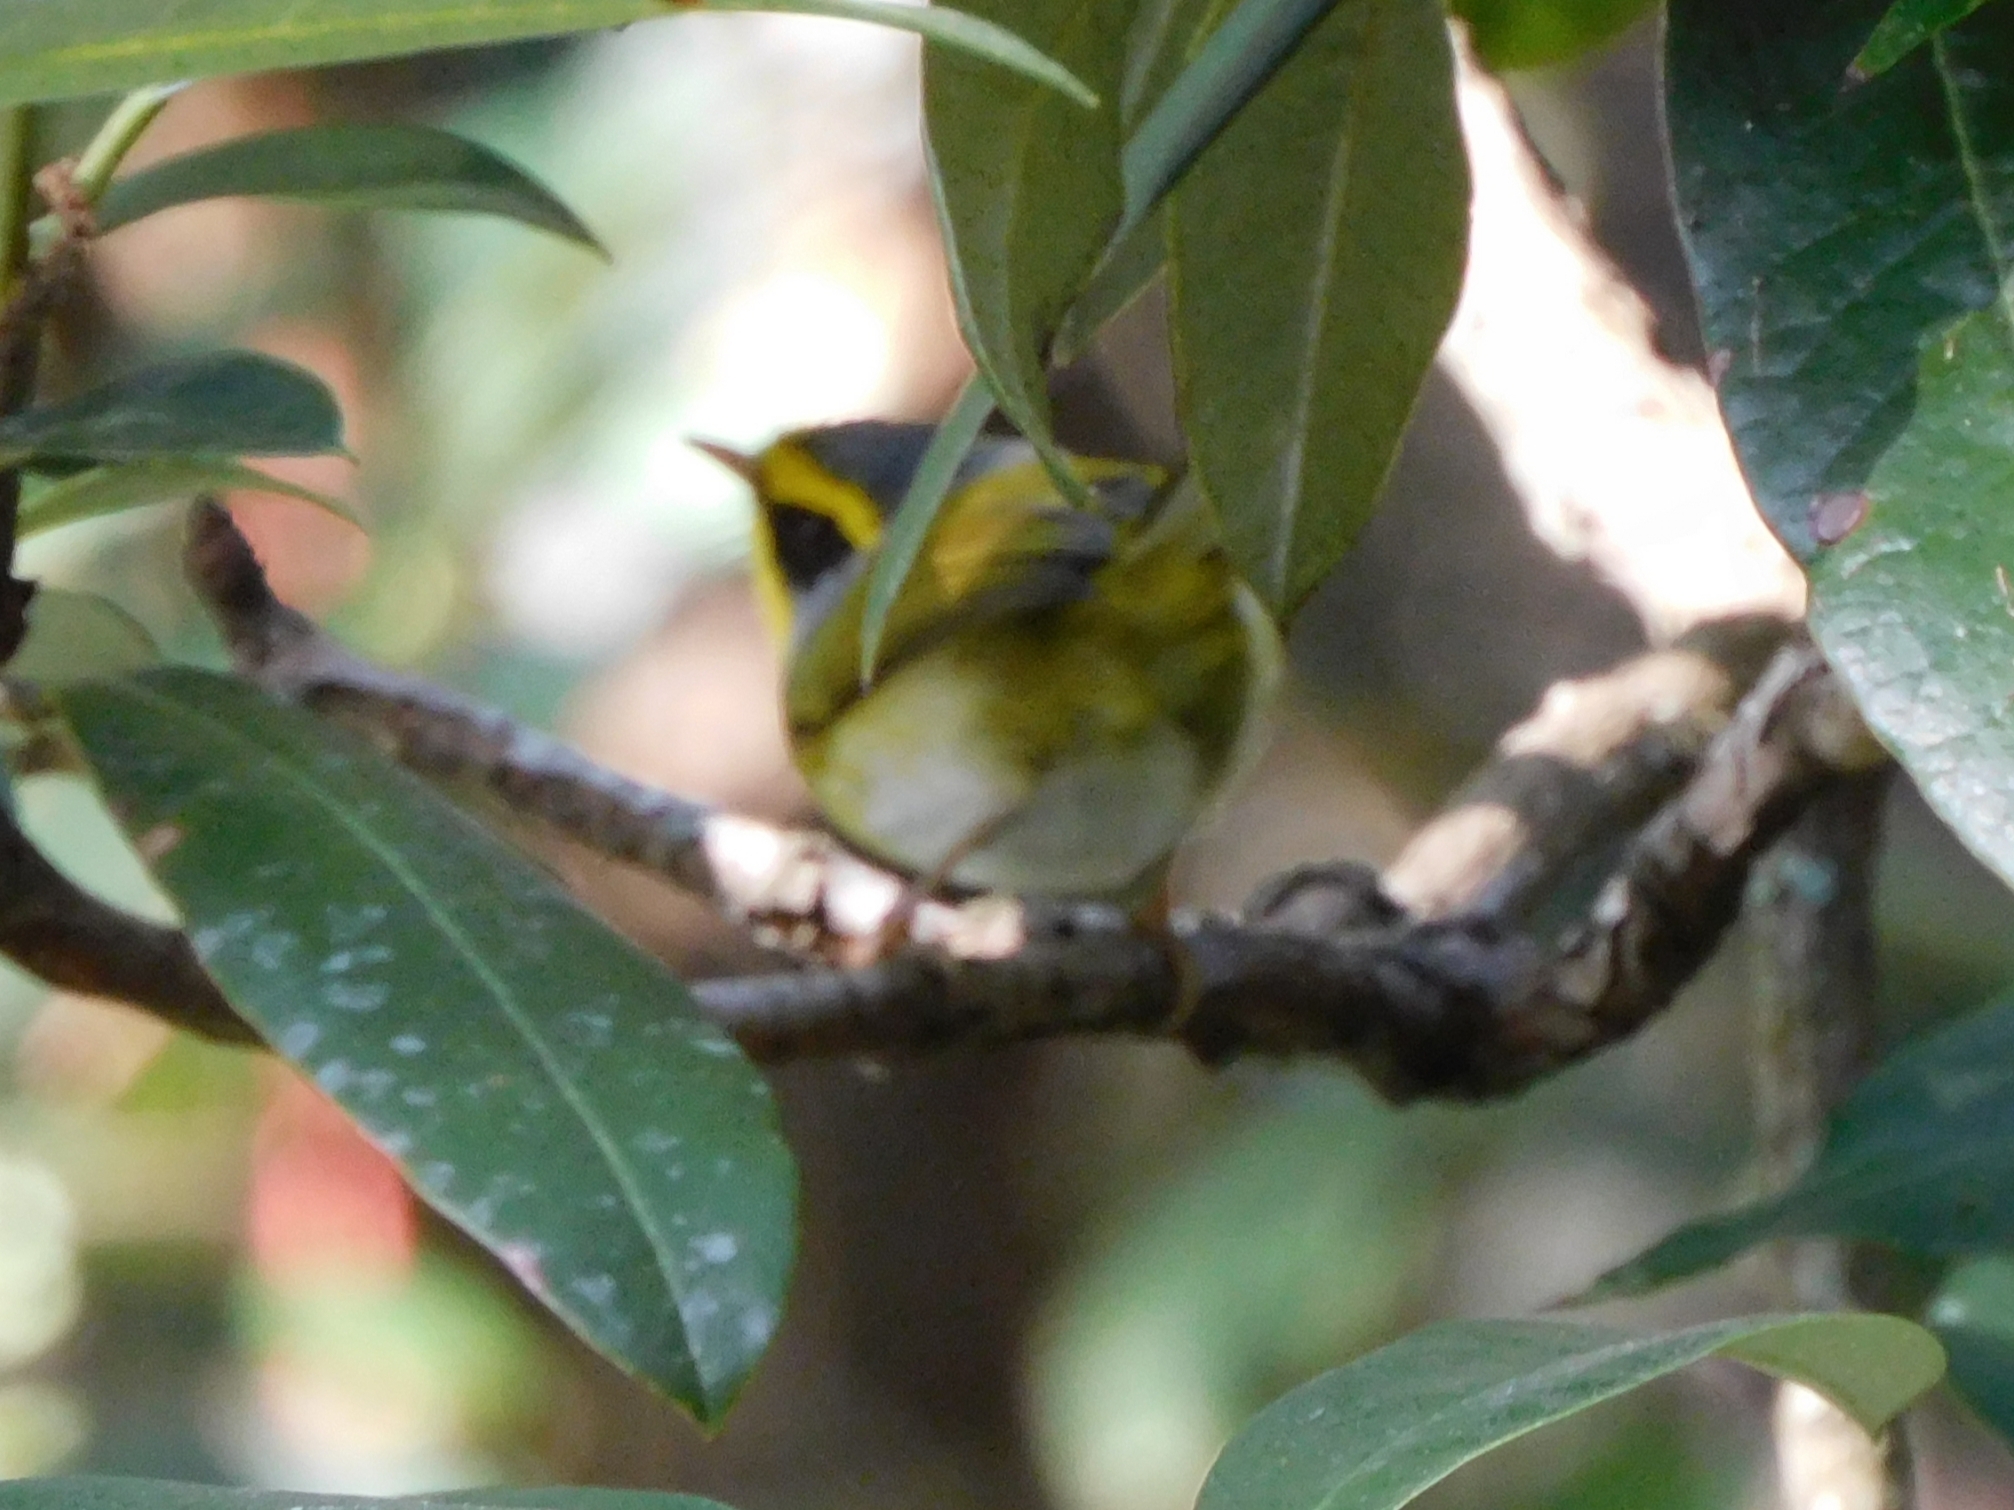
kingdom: Animalia
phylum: Chordata
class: Aves
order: Passeriformes
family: Cettiidae
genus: Abroscopus
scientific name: Abroscopus schisticeps
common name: Black-faced warbler
